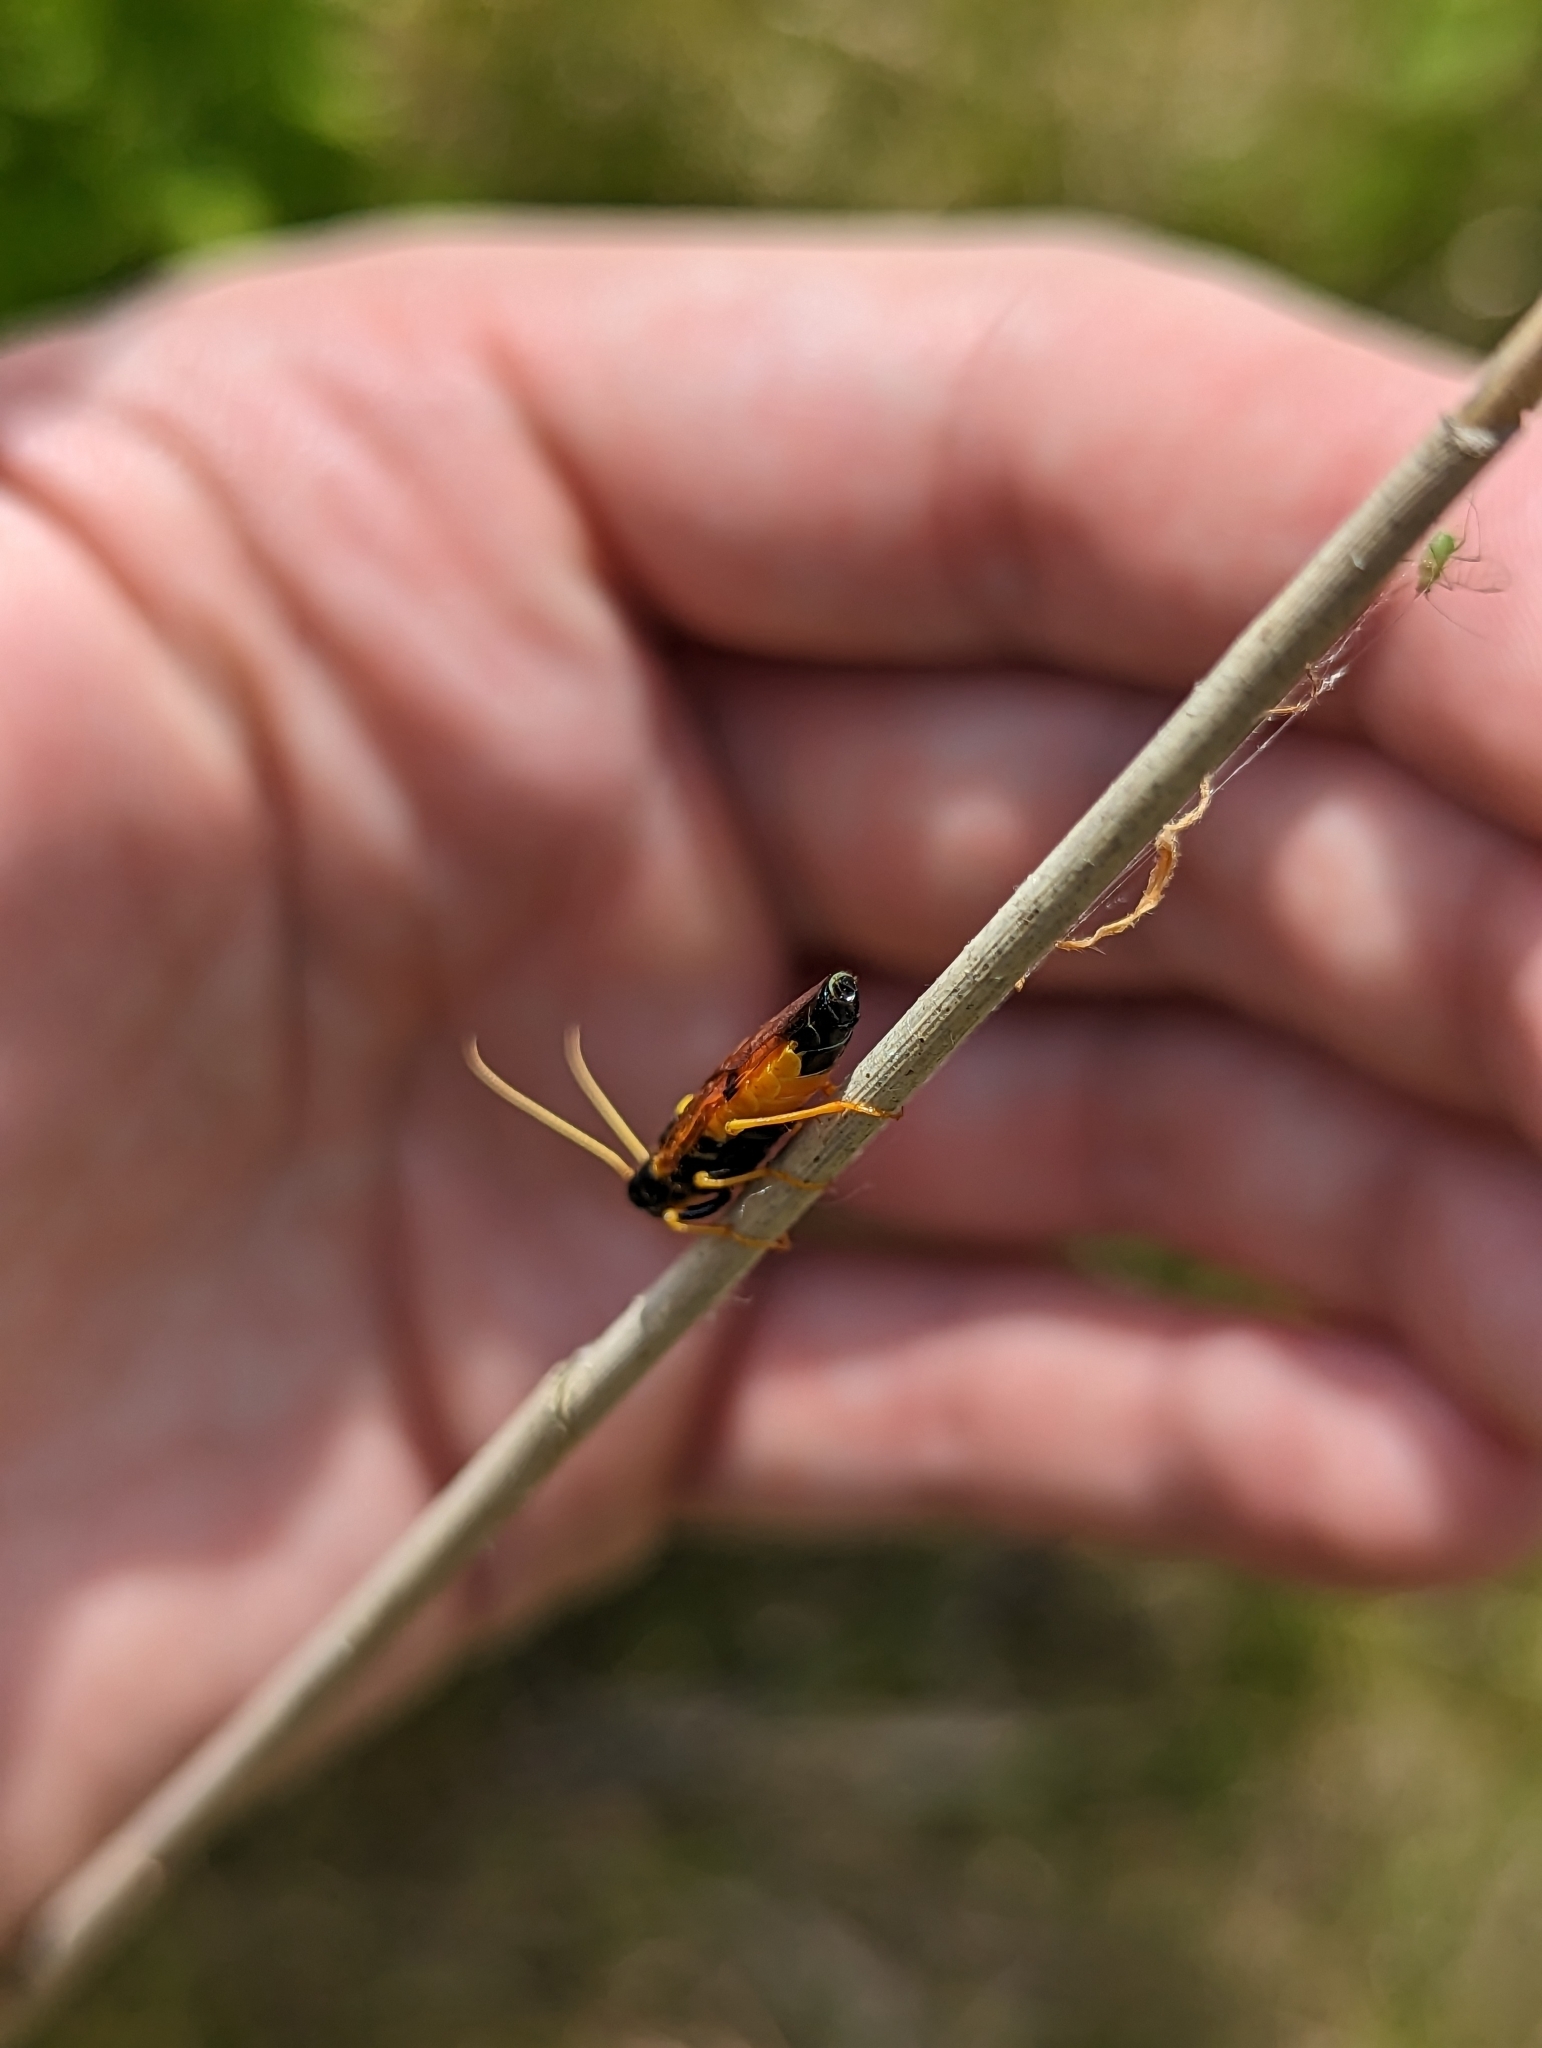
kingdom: Animalia
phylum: Arthropoda
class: Insecta
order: Hymenoptera
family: Pamphiliidae
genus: Acantholyda
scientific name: Acantholyda hieroglyphica
